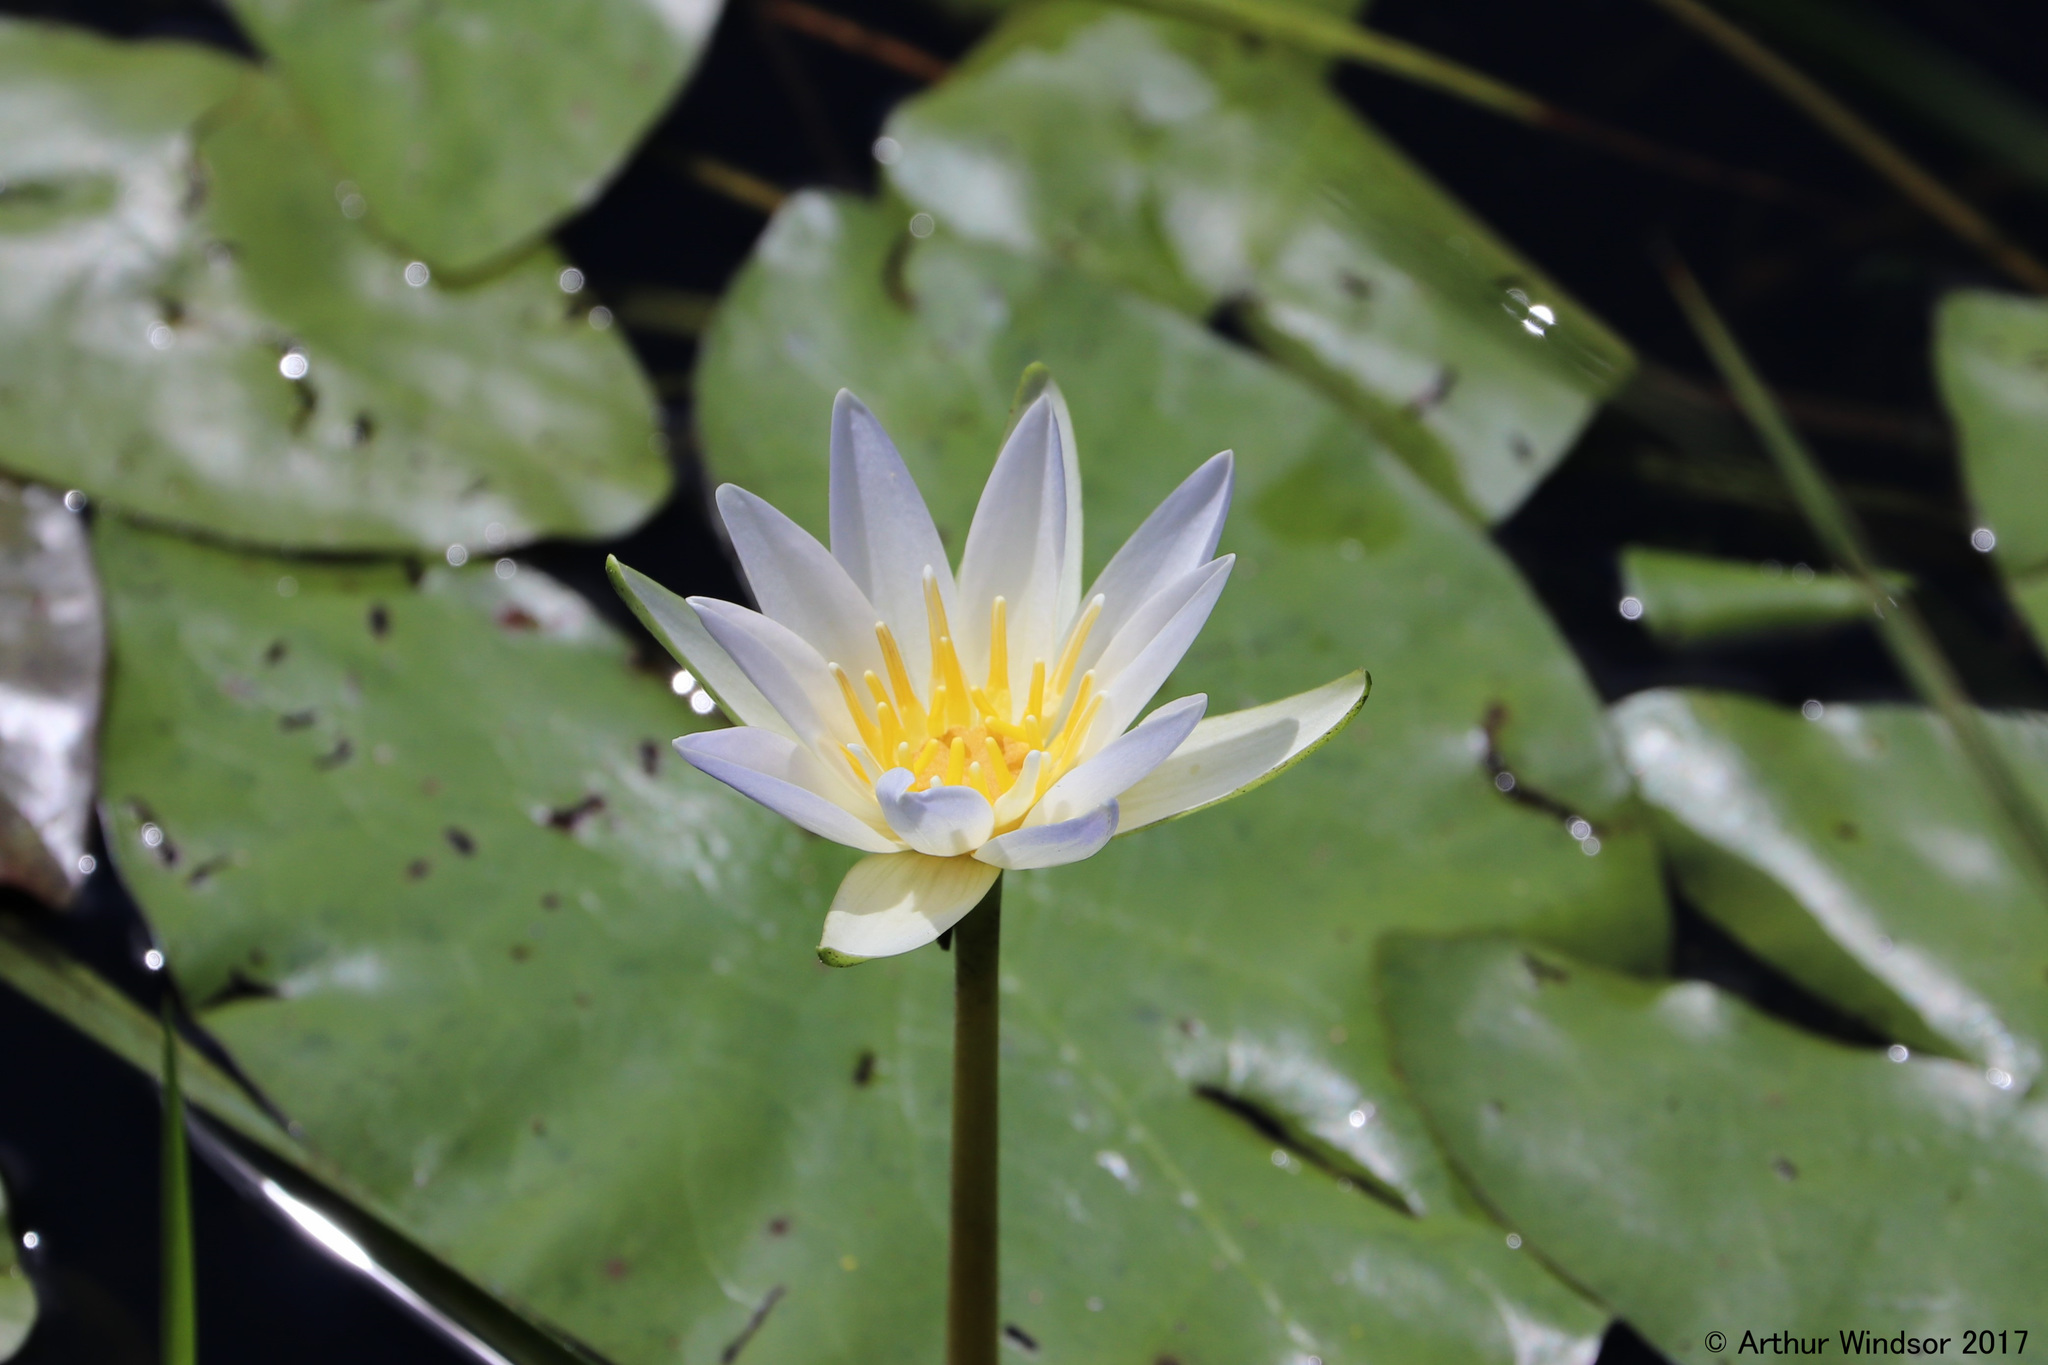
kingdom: Plantae
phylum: Tracheophyta
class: Magnoliopsida
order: Nymphaeales
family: Nymphaeaceae
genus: Nymphaea
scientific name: Nymphaea odorata
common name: Fragrant water-lily
